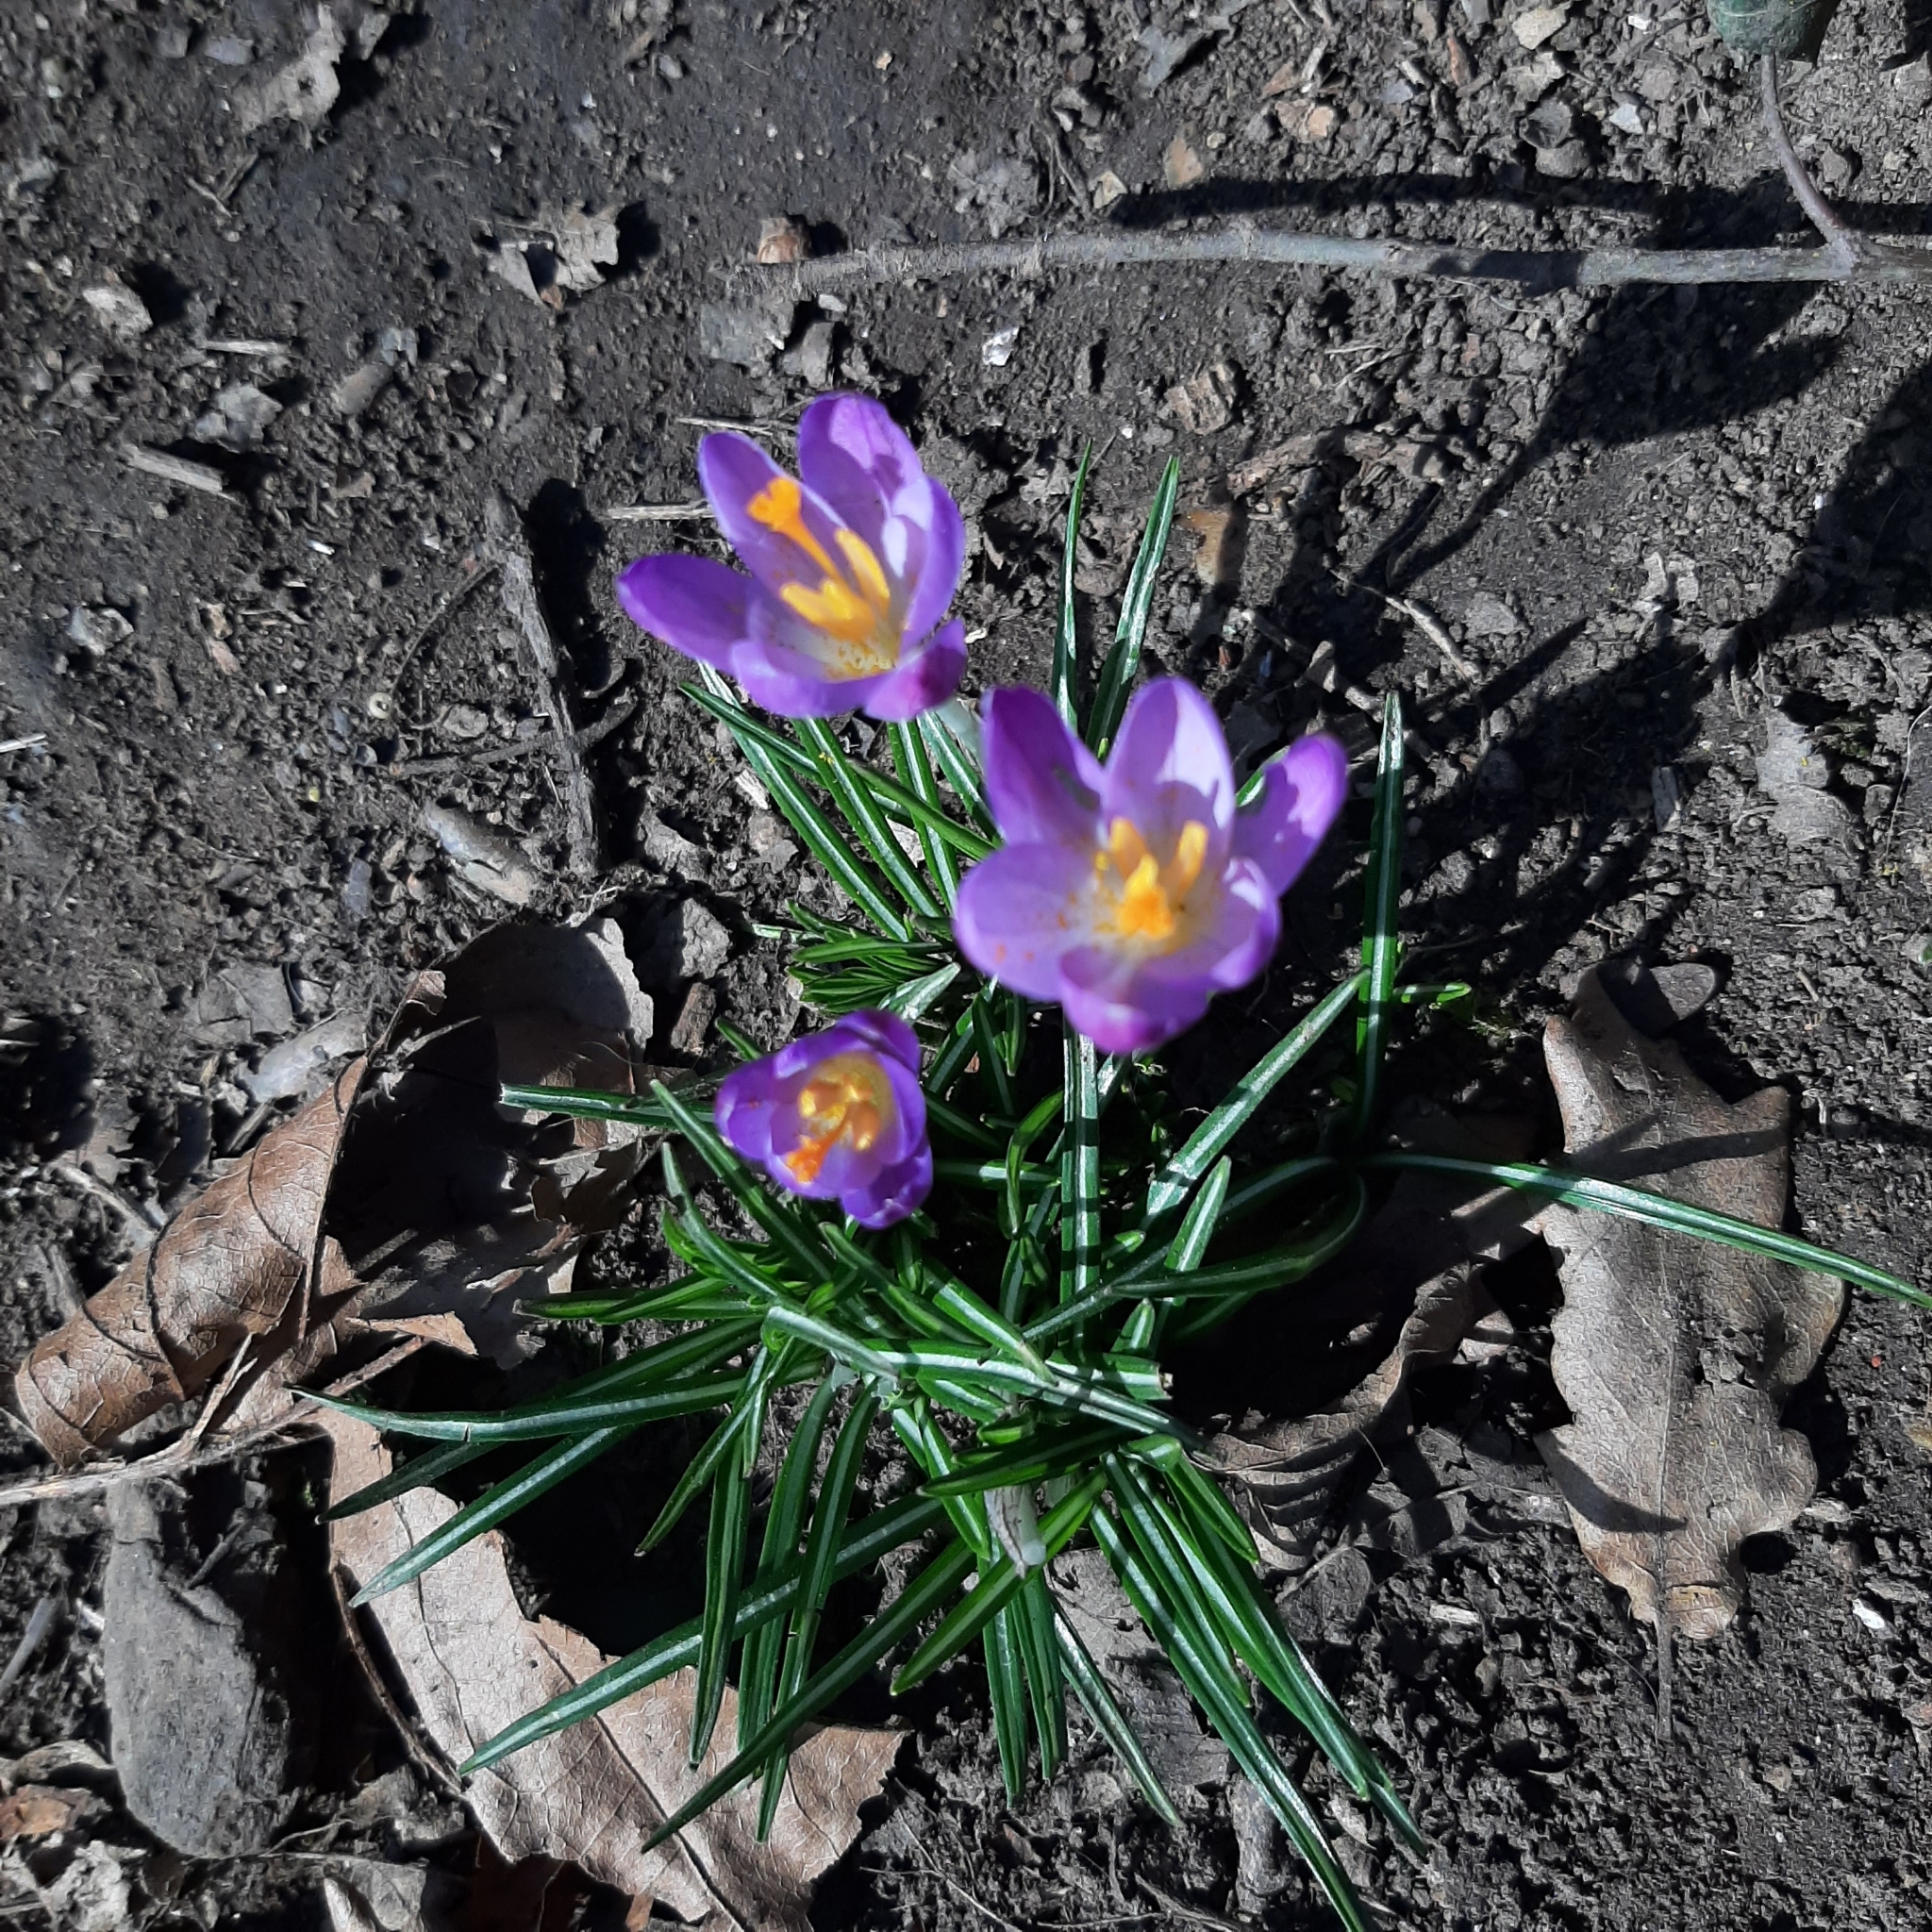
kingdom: Plantae
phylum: Tracheophyta
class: Liliopsida
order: Asparagales
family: Iridaceae
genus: Crocus
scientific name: Crocus tommasinianus
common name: Early crocus
